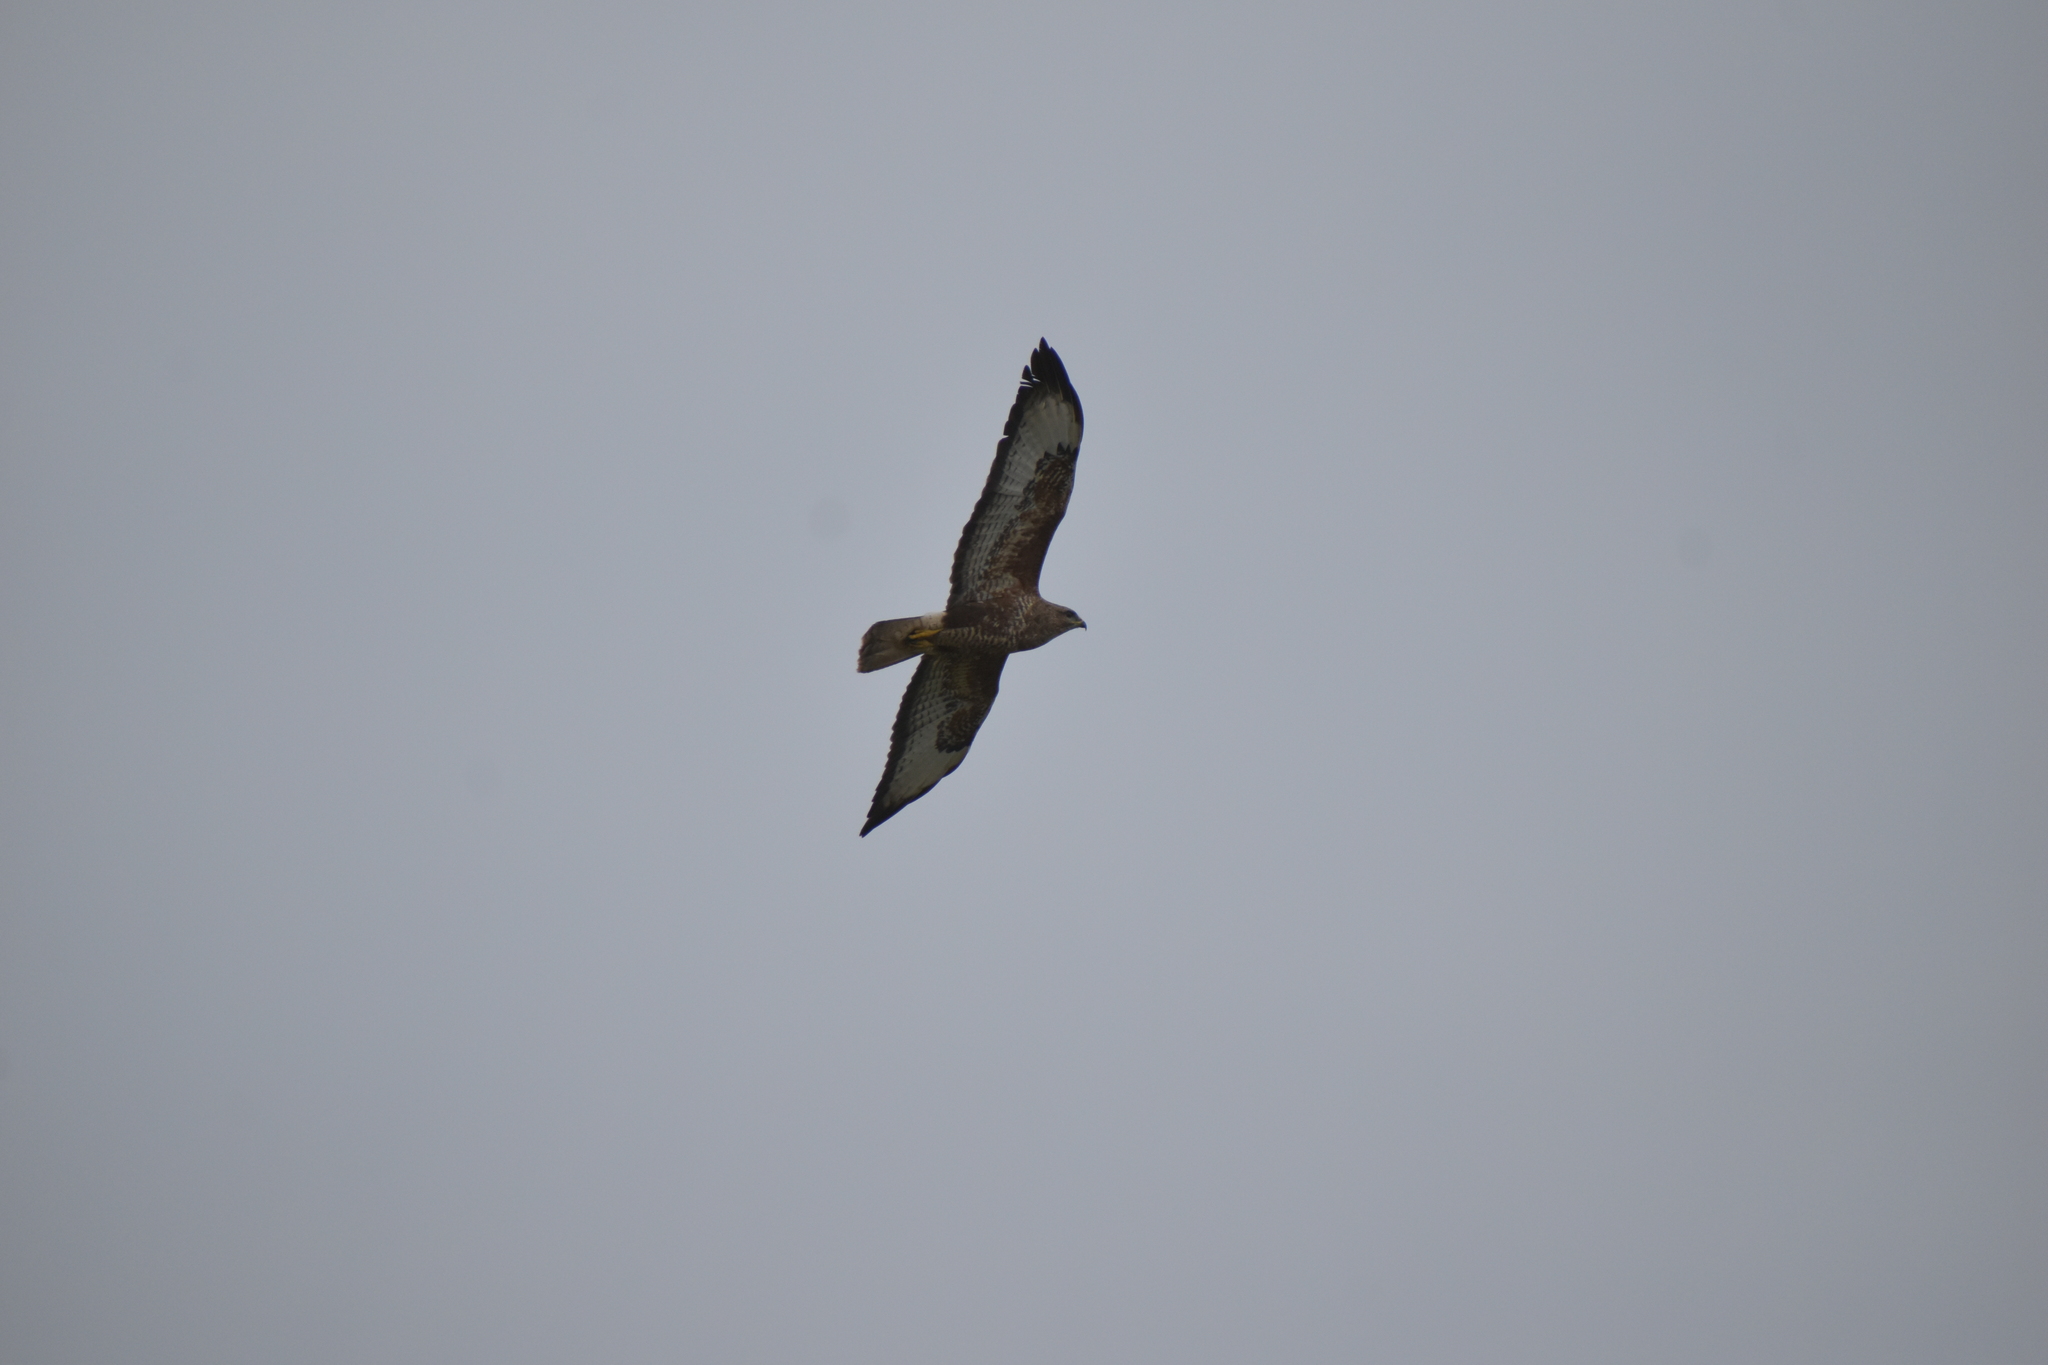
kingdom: Animalia
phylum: Chordata
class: Aves
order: Accipitriformes
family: Accipitridae
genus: Buteo
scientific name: Buteo buteo
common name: Common buzzard
